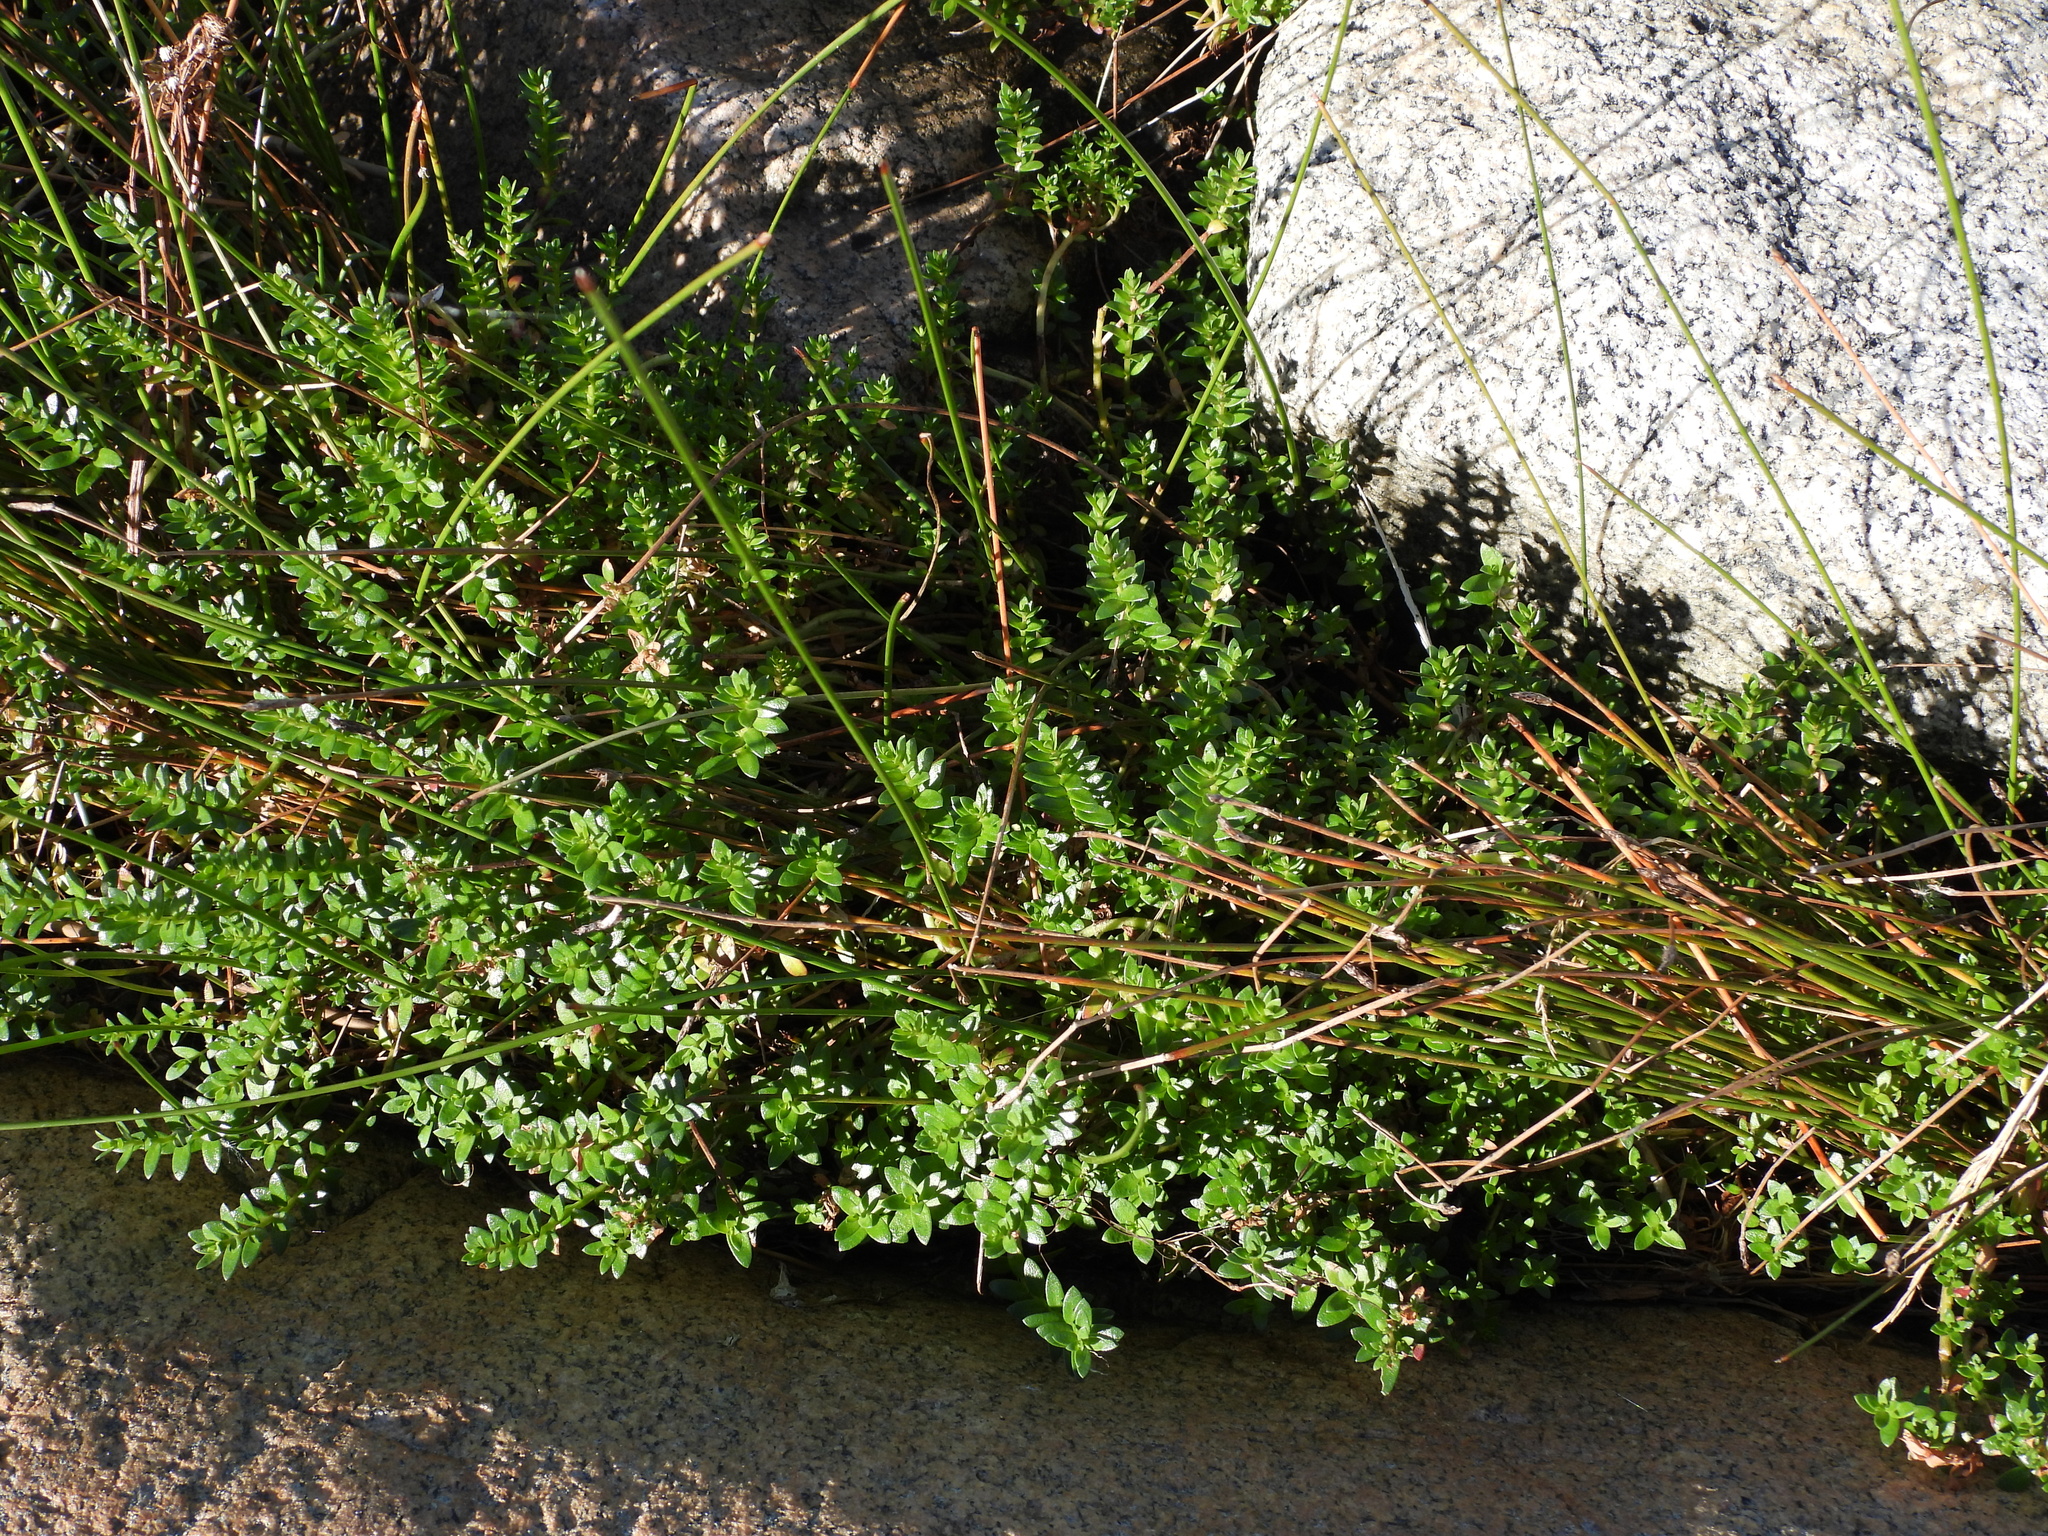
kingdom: Plantae
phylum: Tracheophyta
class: Magnoliopsida
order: Ericales
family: Primulaceae
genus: Lysimachia
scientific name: Lysimachia maritima
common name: Sea milkwort
